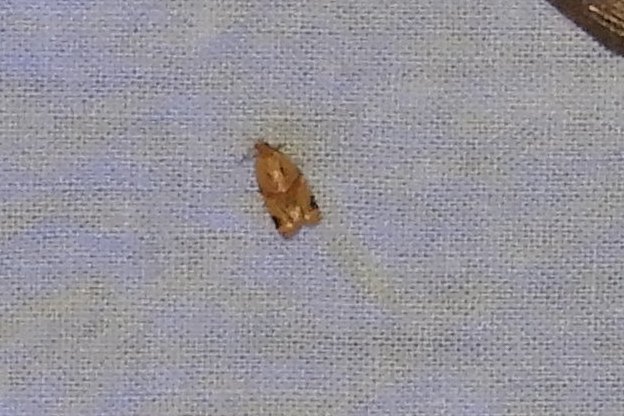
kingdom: Animalia
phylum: Arthropoda
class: Insecta
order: Lepidoptera
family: Tortricidae
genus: Clepsis
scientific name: Clepsis peritana
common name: Garden tortrix
